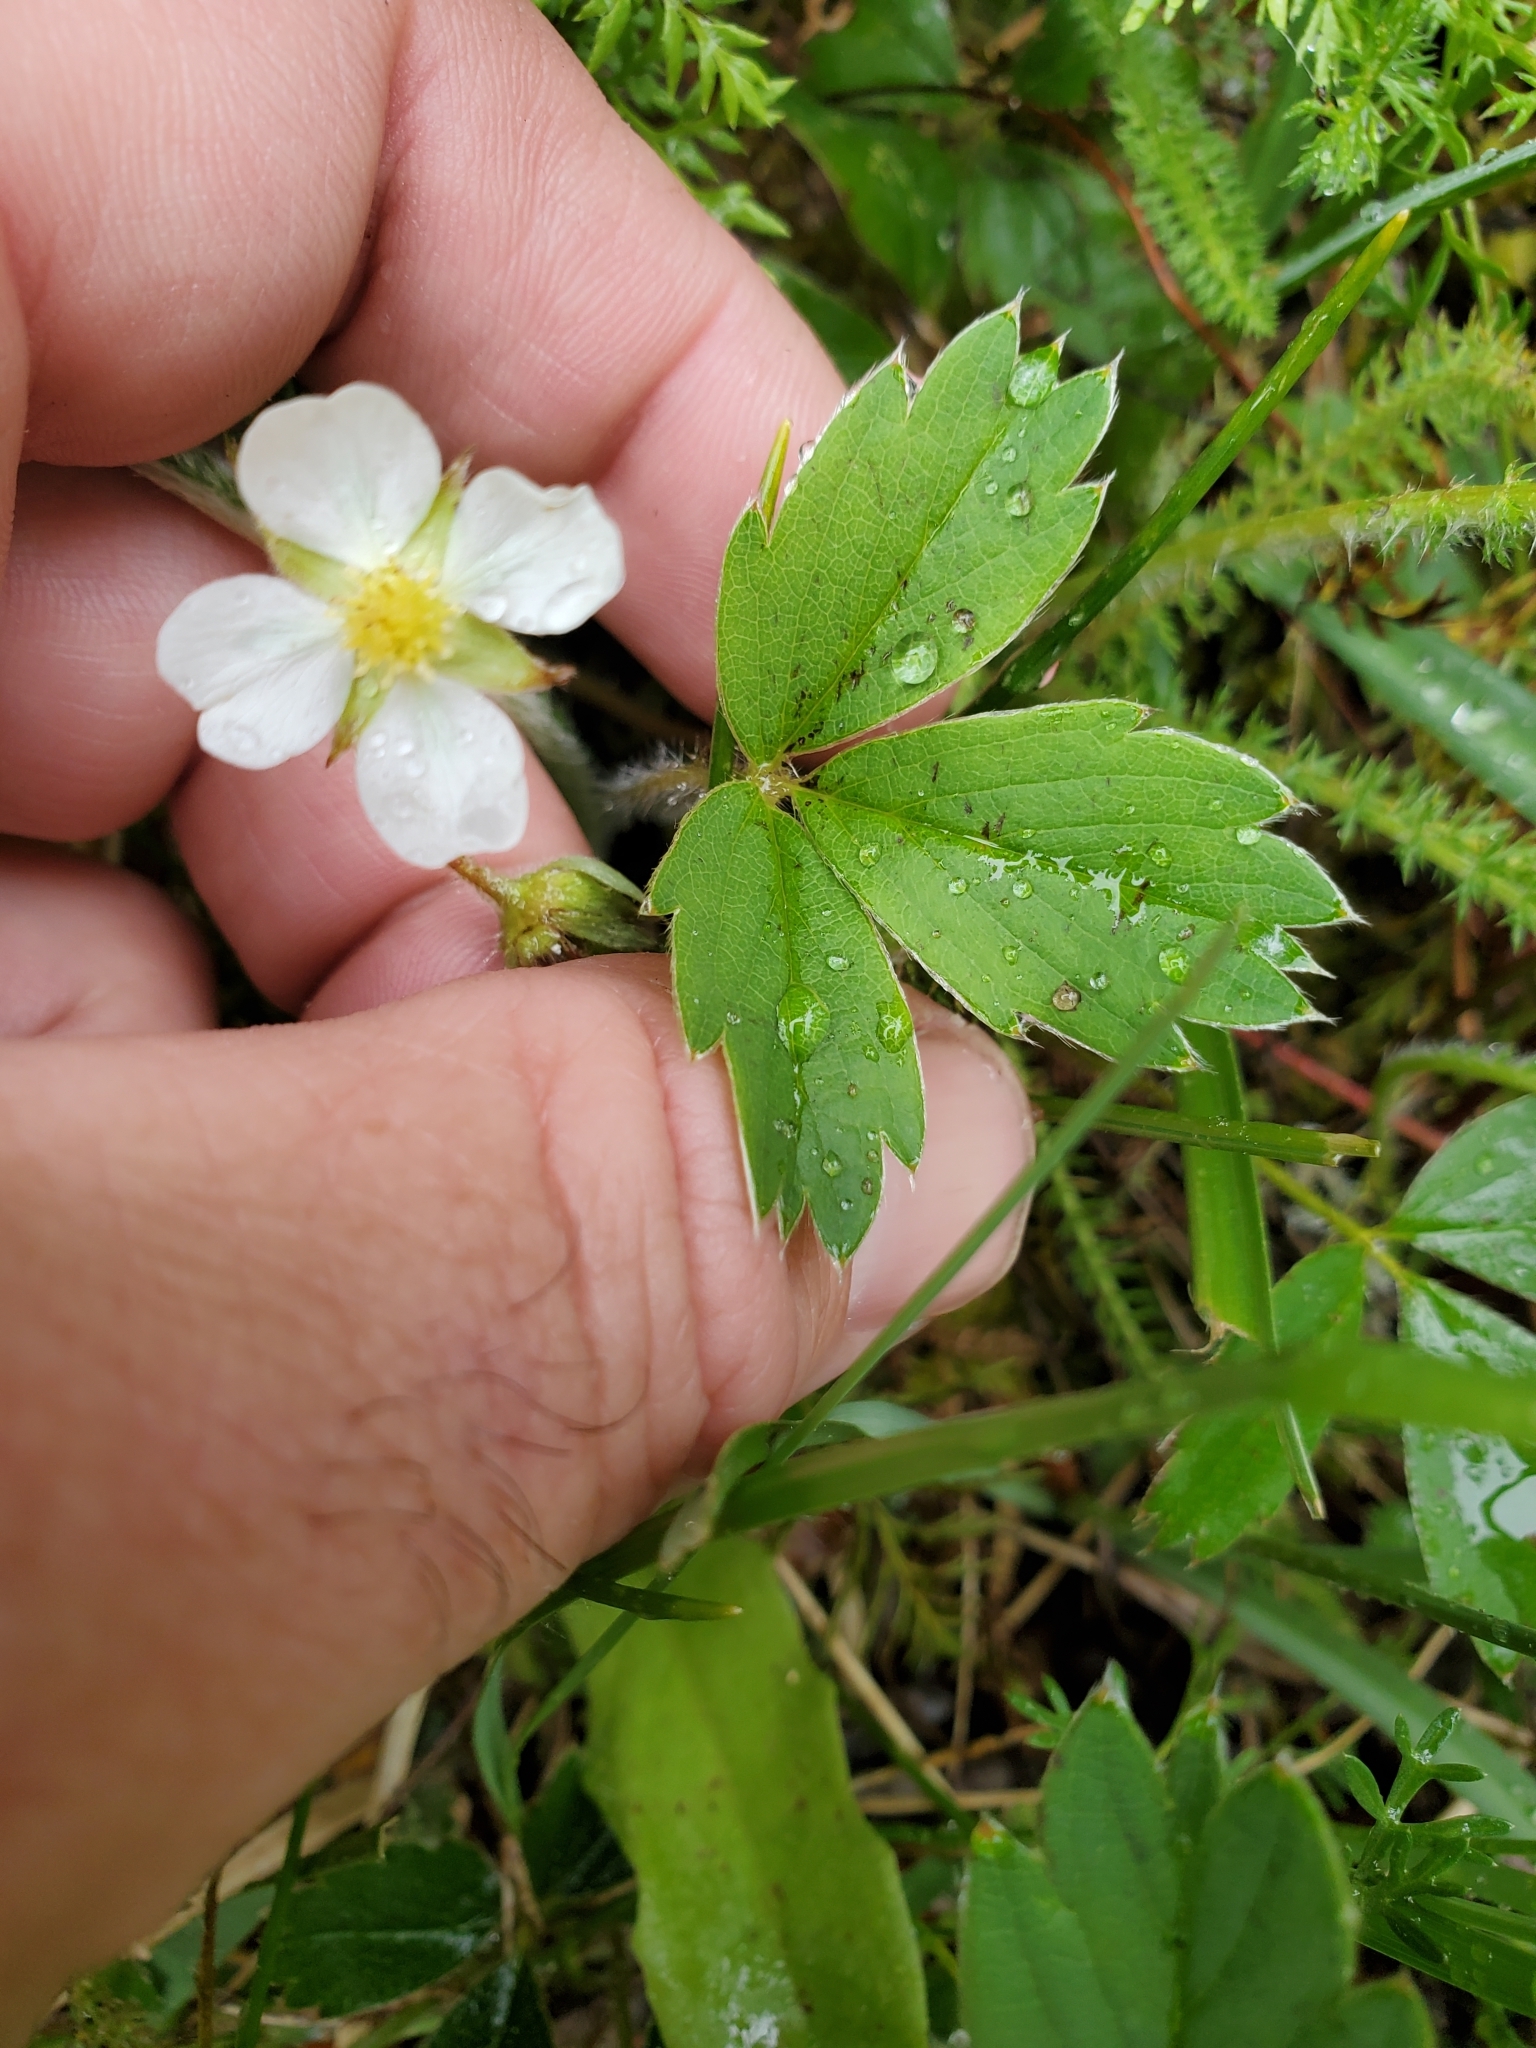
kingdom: Plantae
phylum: Tracheophyta
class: Magnoliopsida
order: Rosales
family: Rosaceae
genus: Fragaria
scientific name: Fragaria virginiana
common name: Thickleaved wild strawberry
